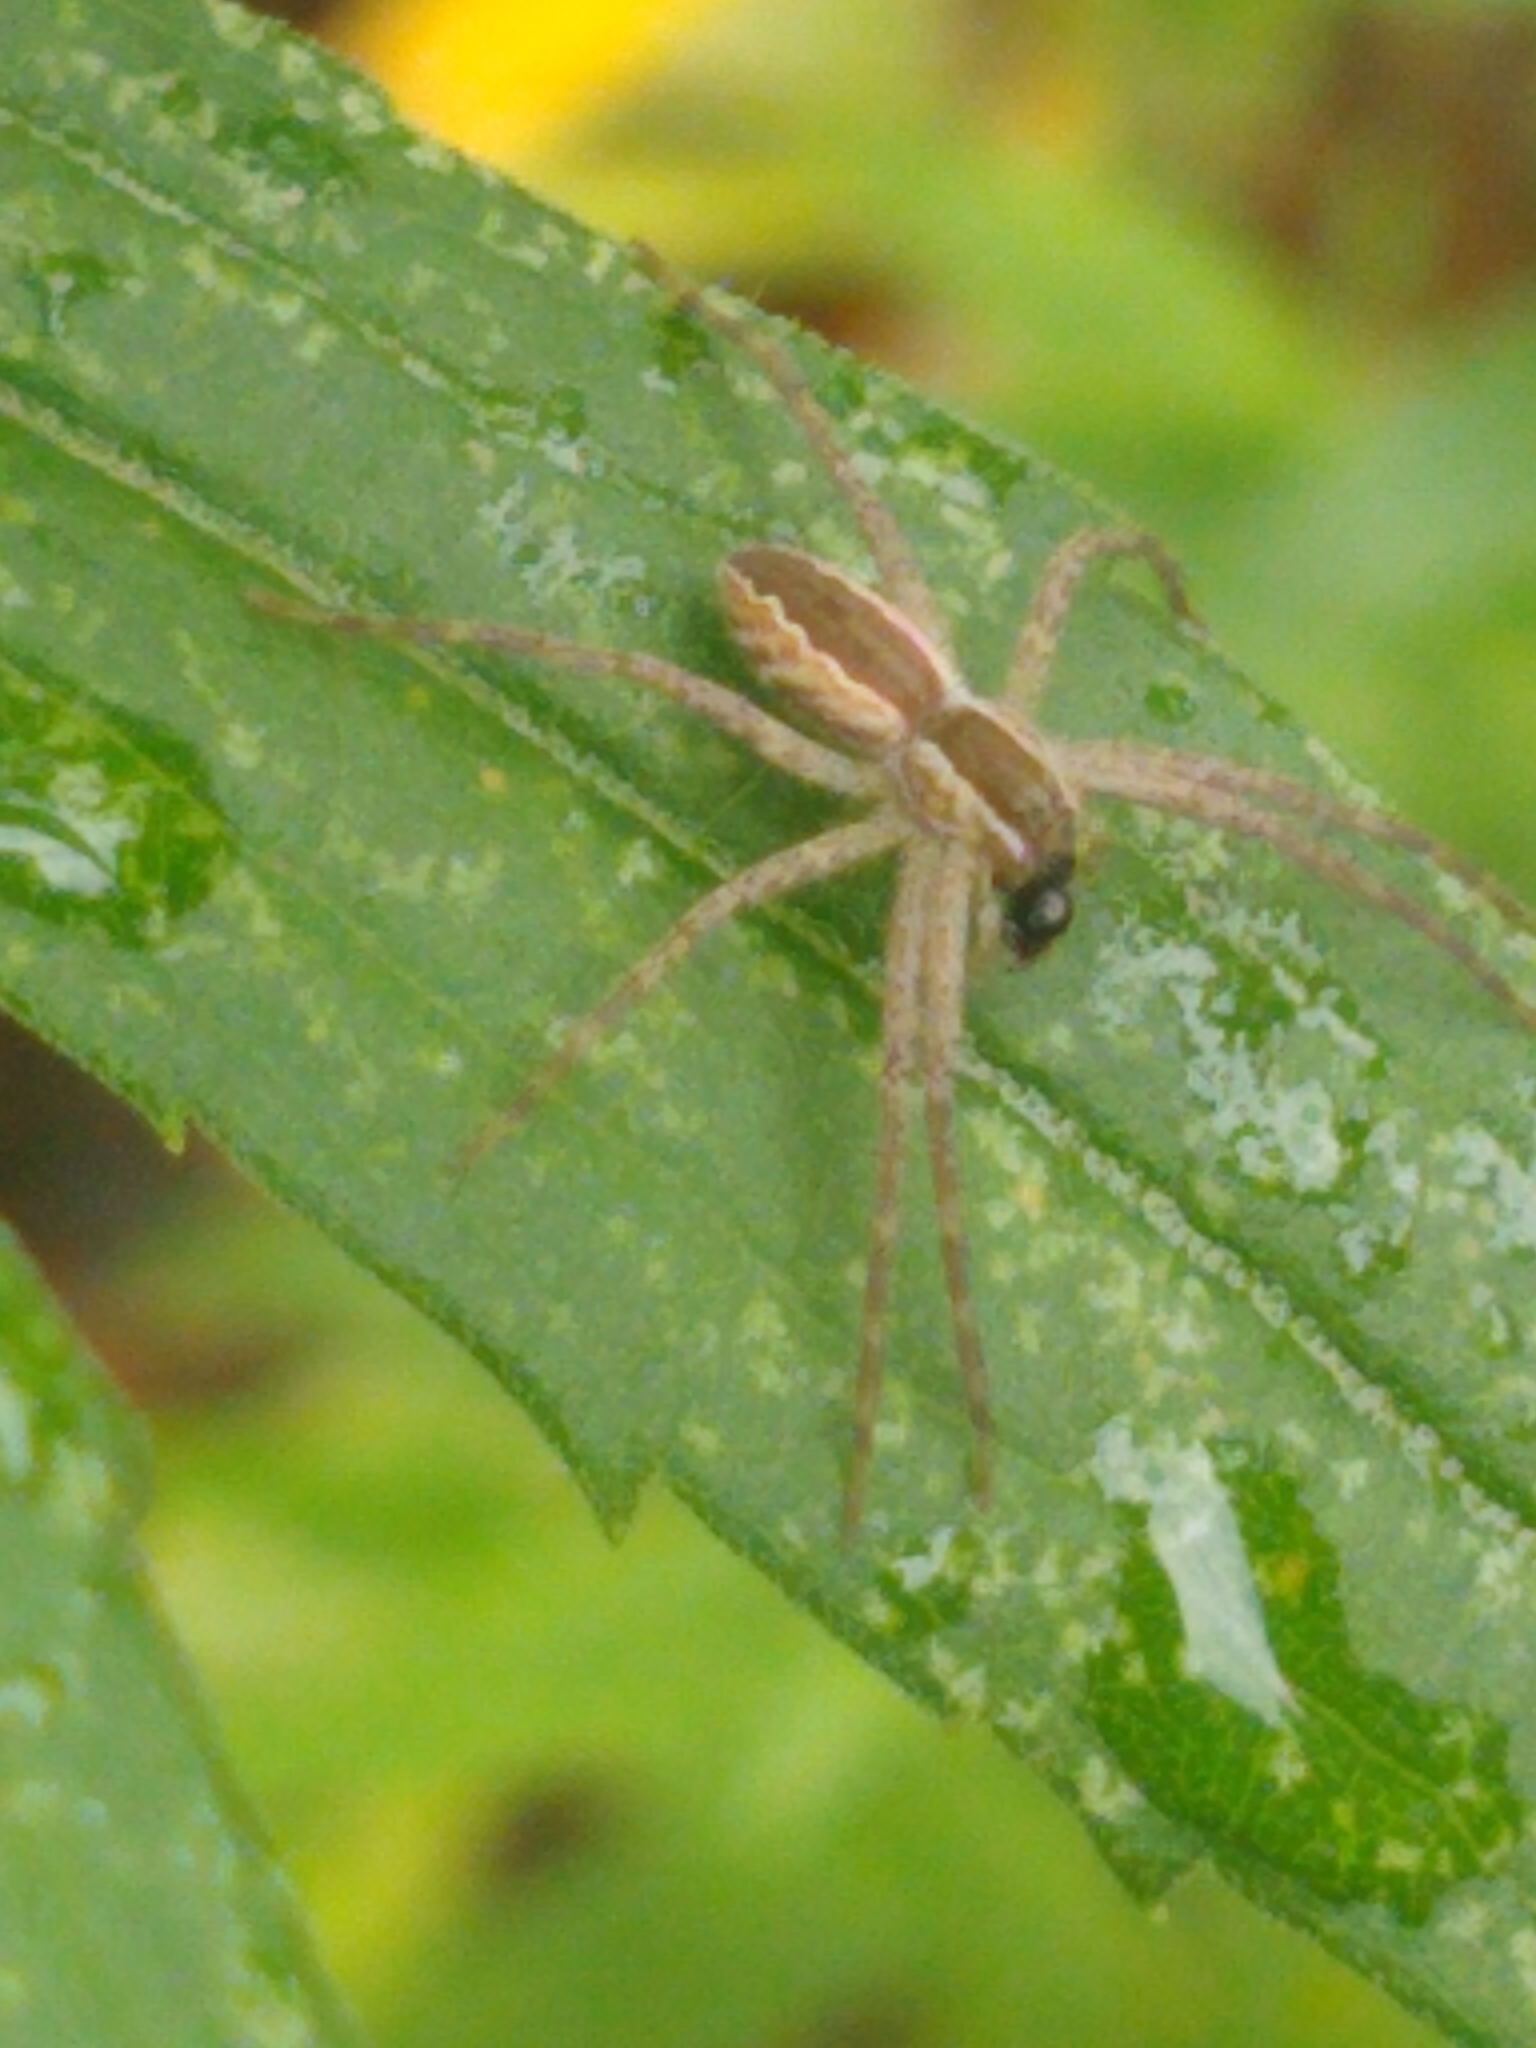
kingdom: Animalia
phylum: Arthropoda
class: Arachnida
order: Araneae
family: Pisauridae
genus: Pisaurina
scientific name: Pisaurina mira
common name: American nursery web spider
